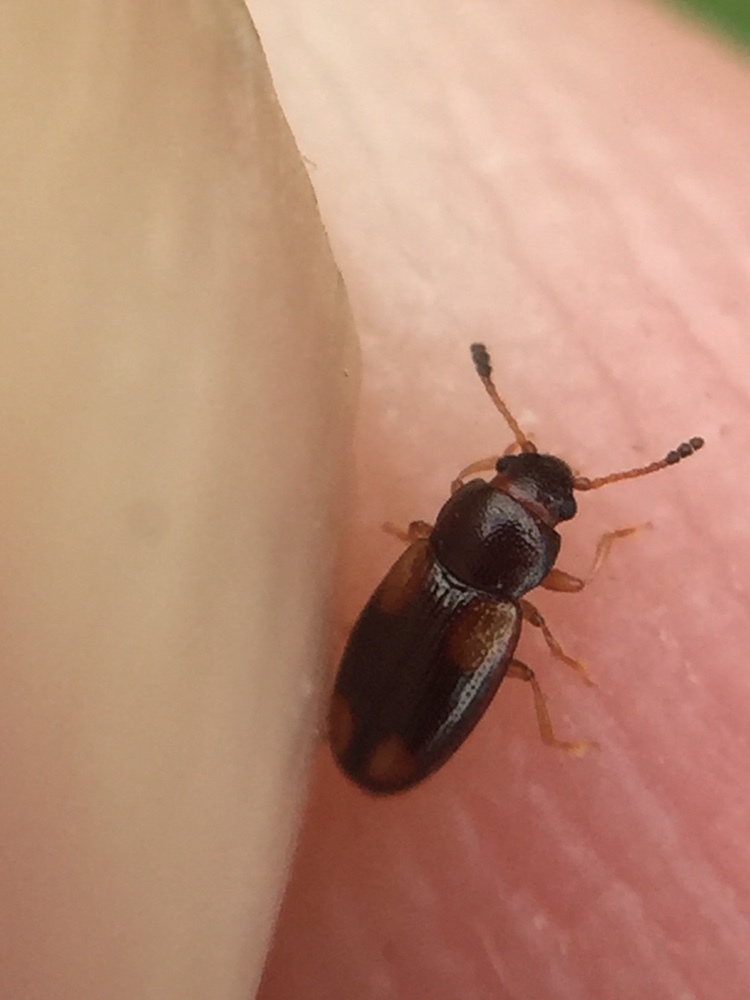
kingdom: Animalia
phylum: Arthropoda
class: Insecta
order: Coleoptera
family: Erotylidae
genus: Loberus
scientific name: Loberus nitens
